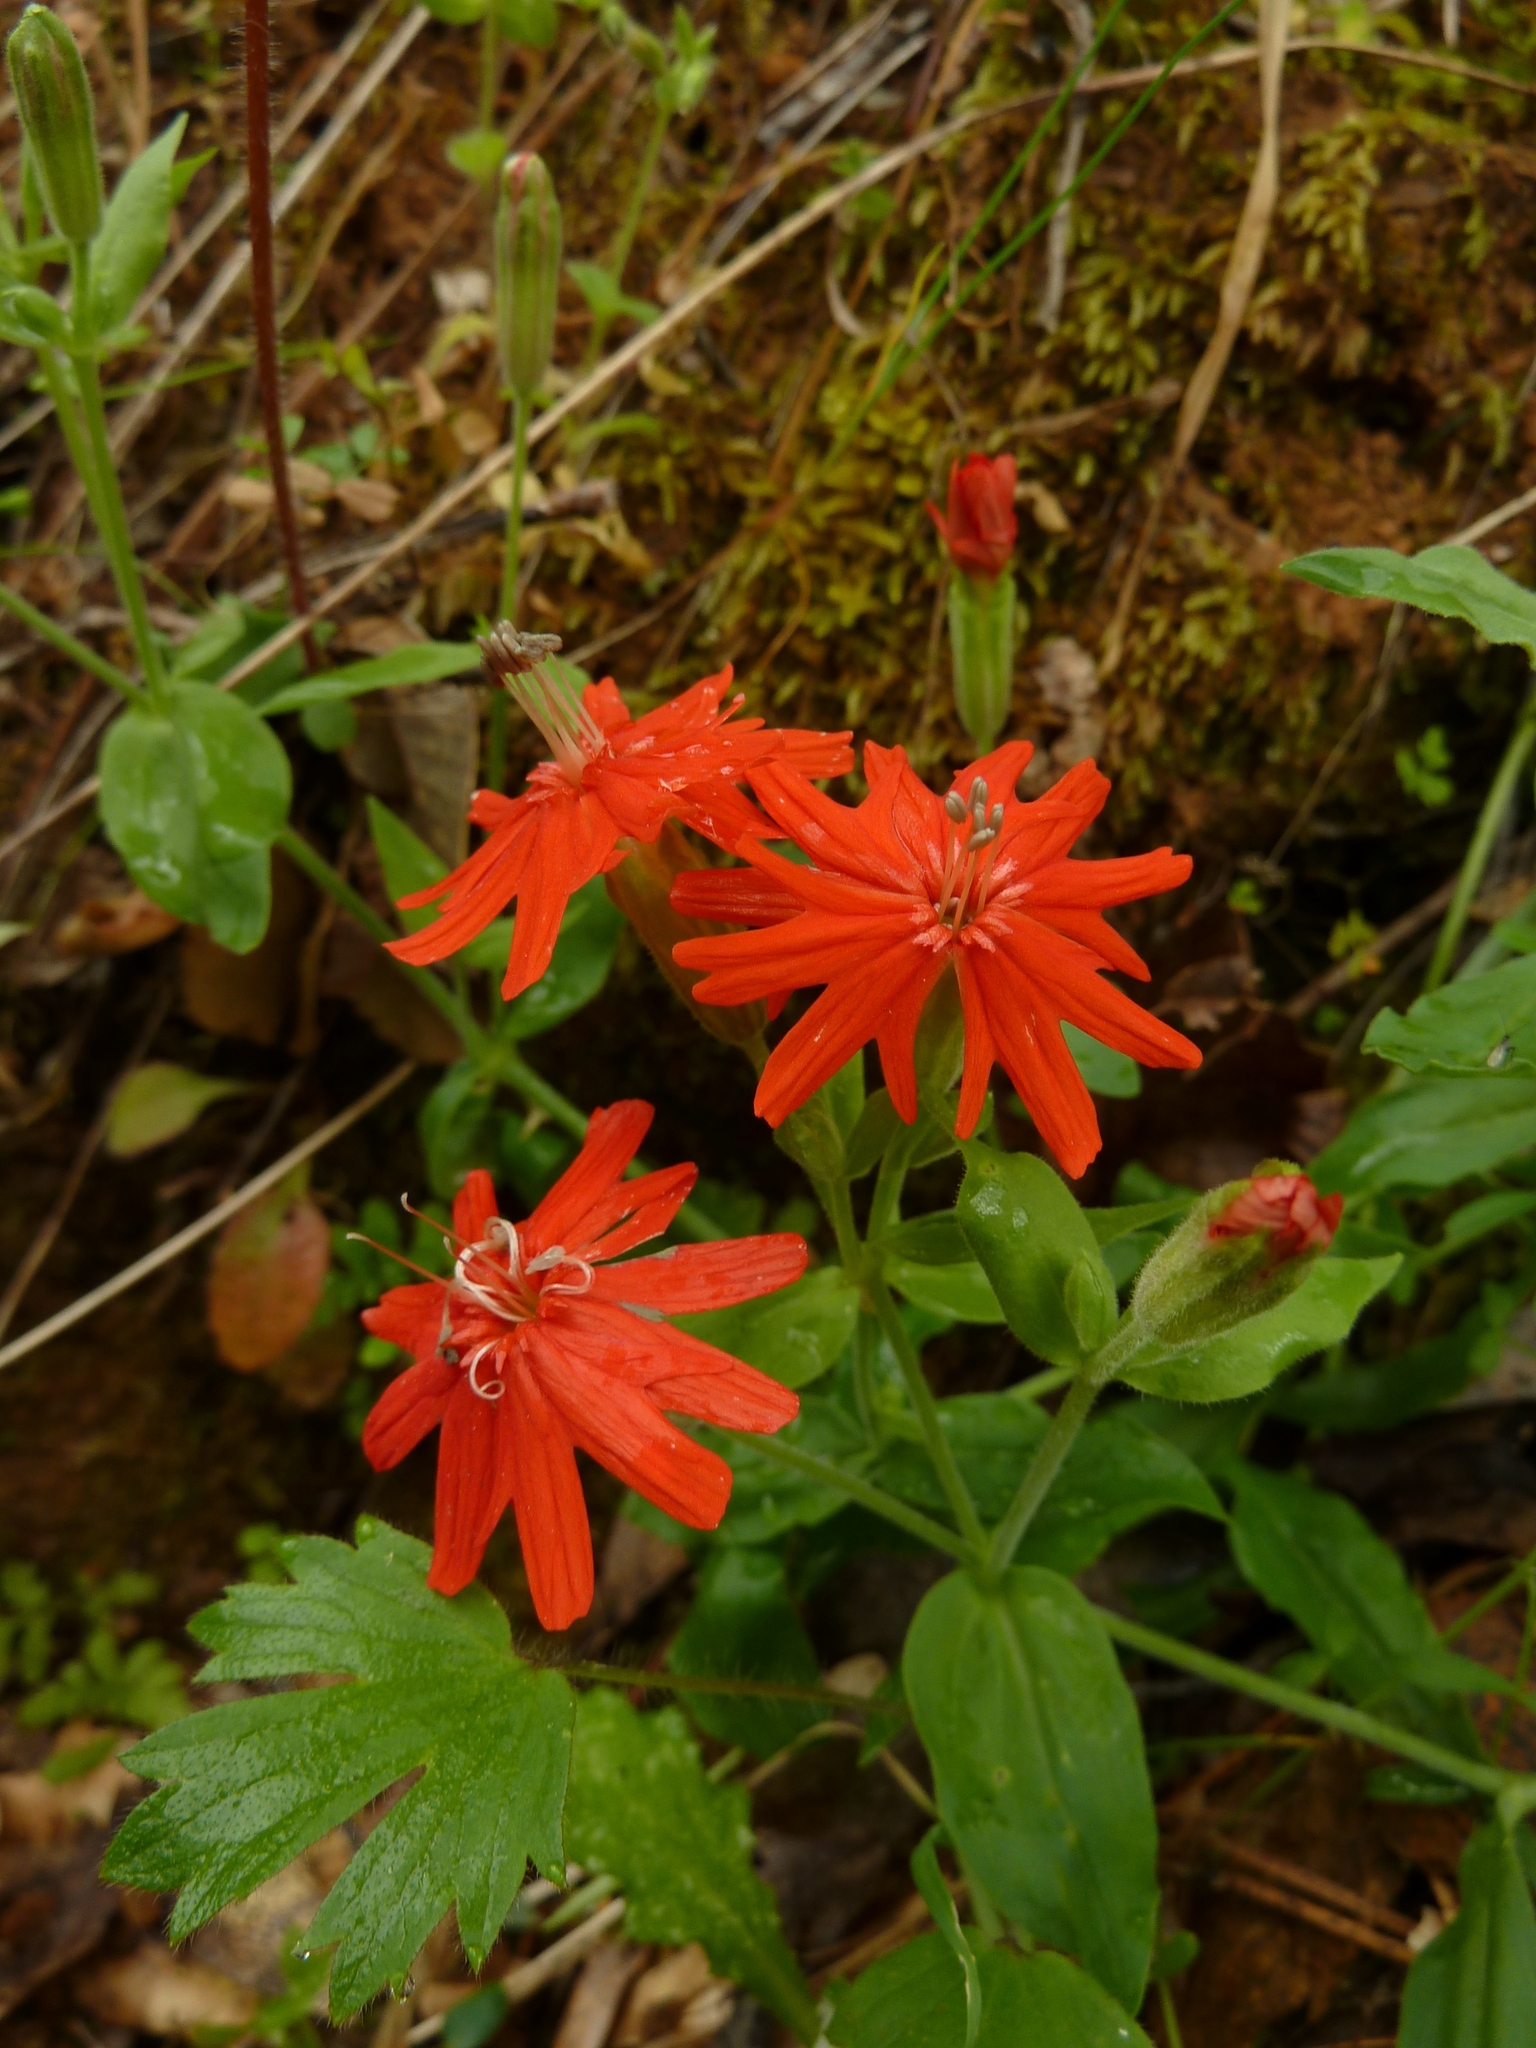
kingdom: Plantae
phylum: Tracheophyta
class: Magnoliopsida
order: Caryophyllales
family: Caryophyllaceae
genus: Silene
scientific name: Silene laciniata
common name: Indian-pink
